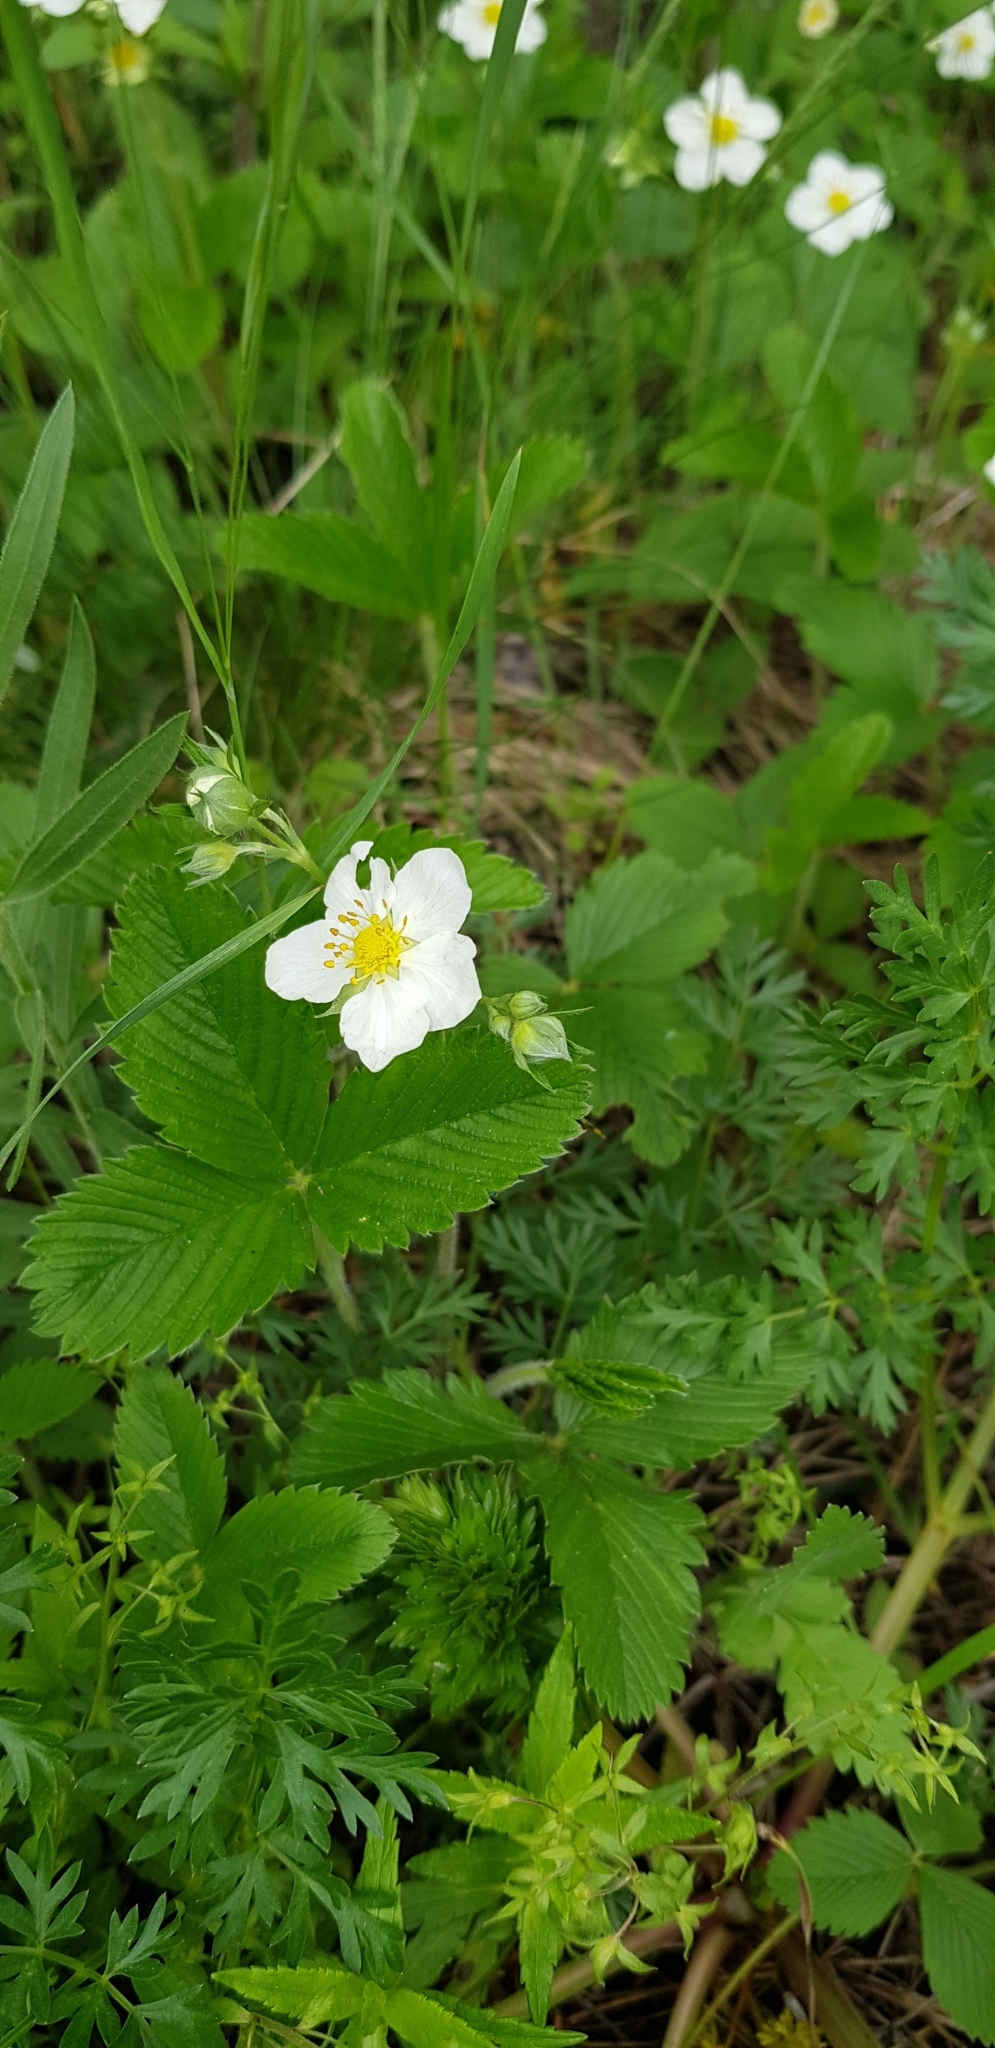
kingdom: Plantae
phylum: Tracheophyta
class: Magnoliopsida
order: Rosales
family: Rosaceae
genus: Fragaria
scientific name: Fragaria viridis
